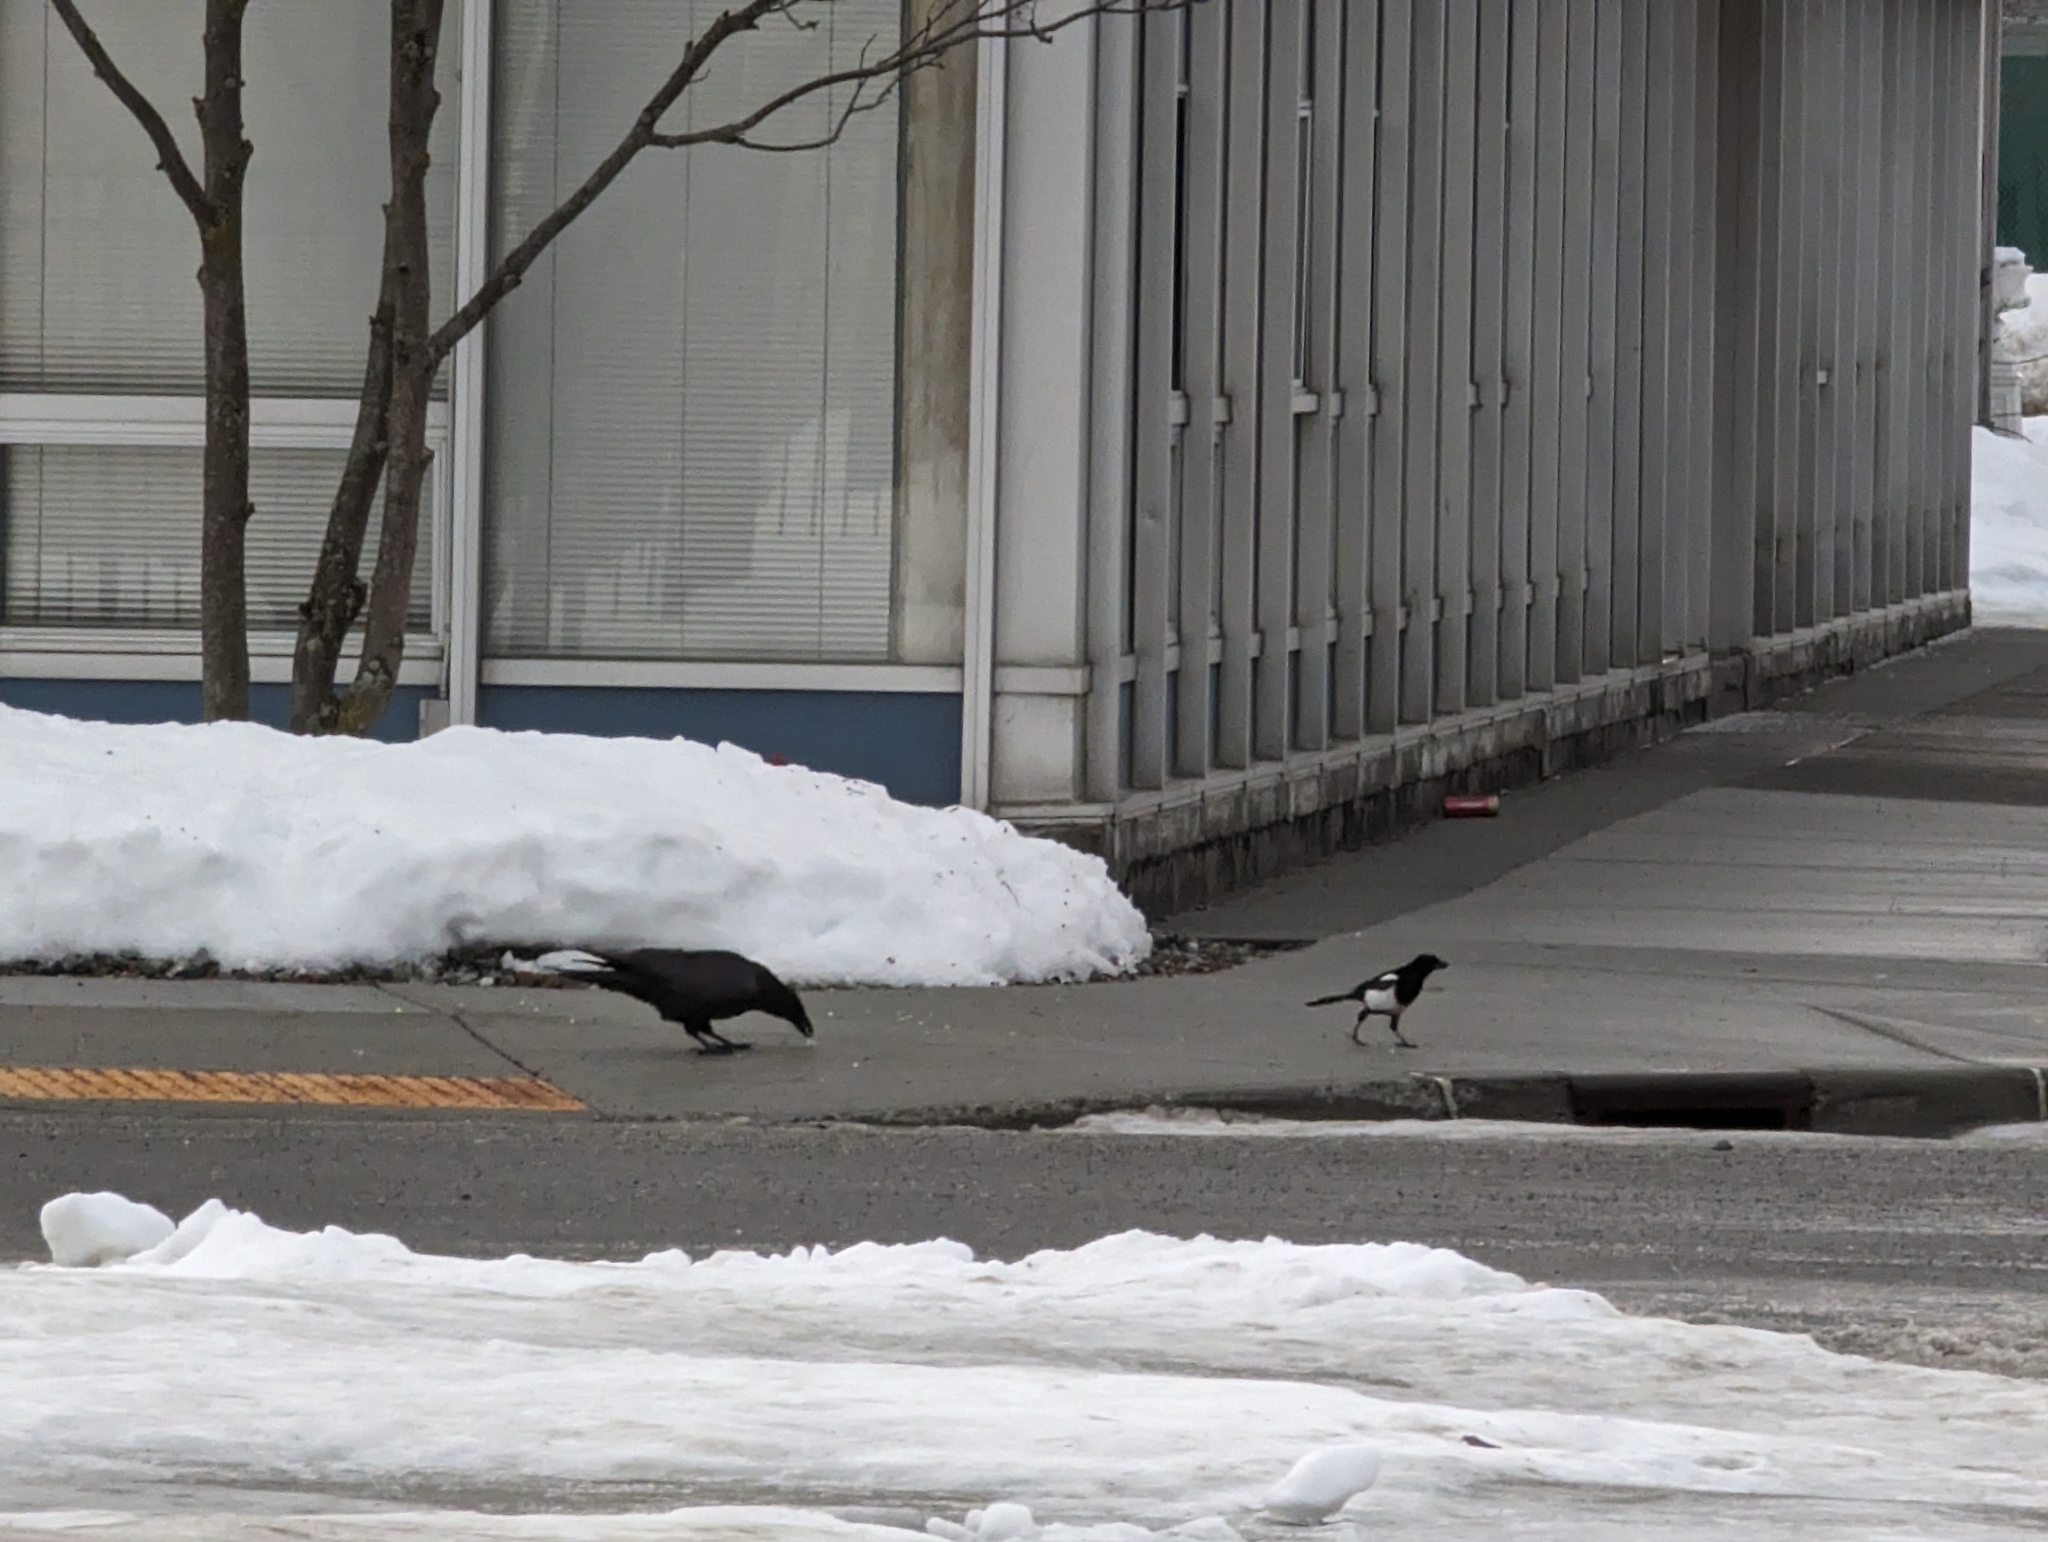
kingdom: Animalia
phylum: Chordata
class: Aves
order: Passeriformes
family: Corvidae
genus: Pica
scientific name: Pica hudsonia
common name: Black-billed magpie
